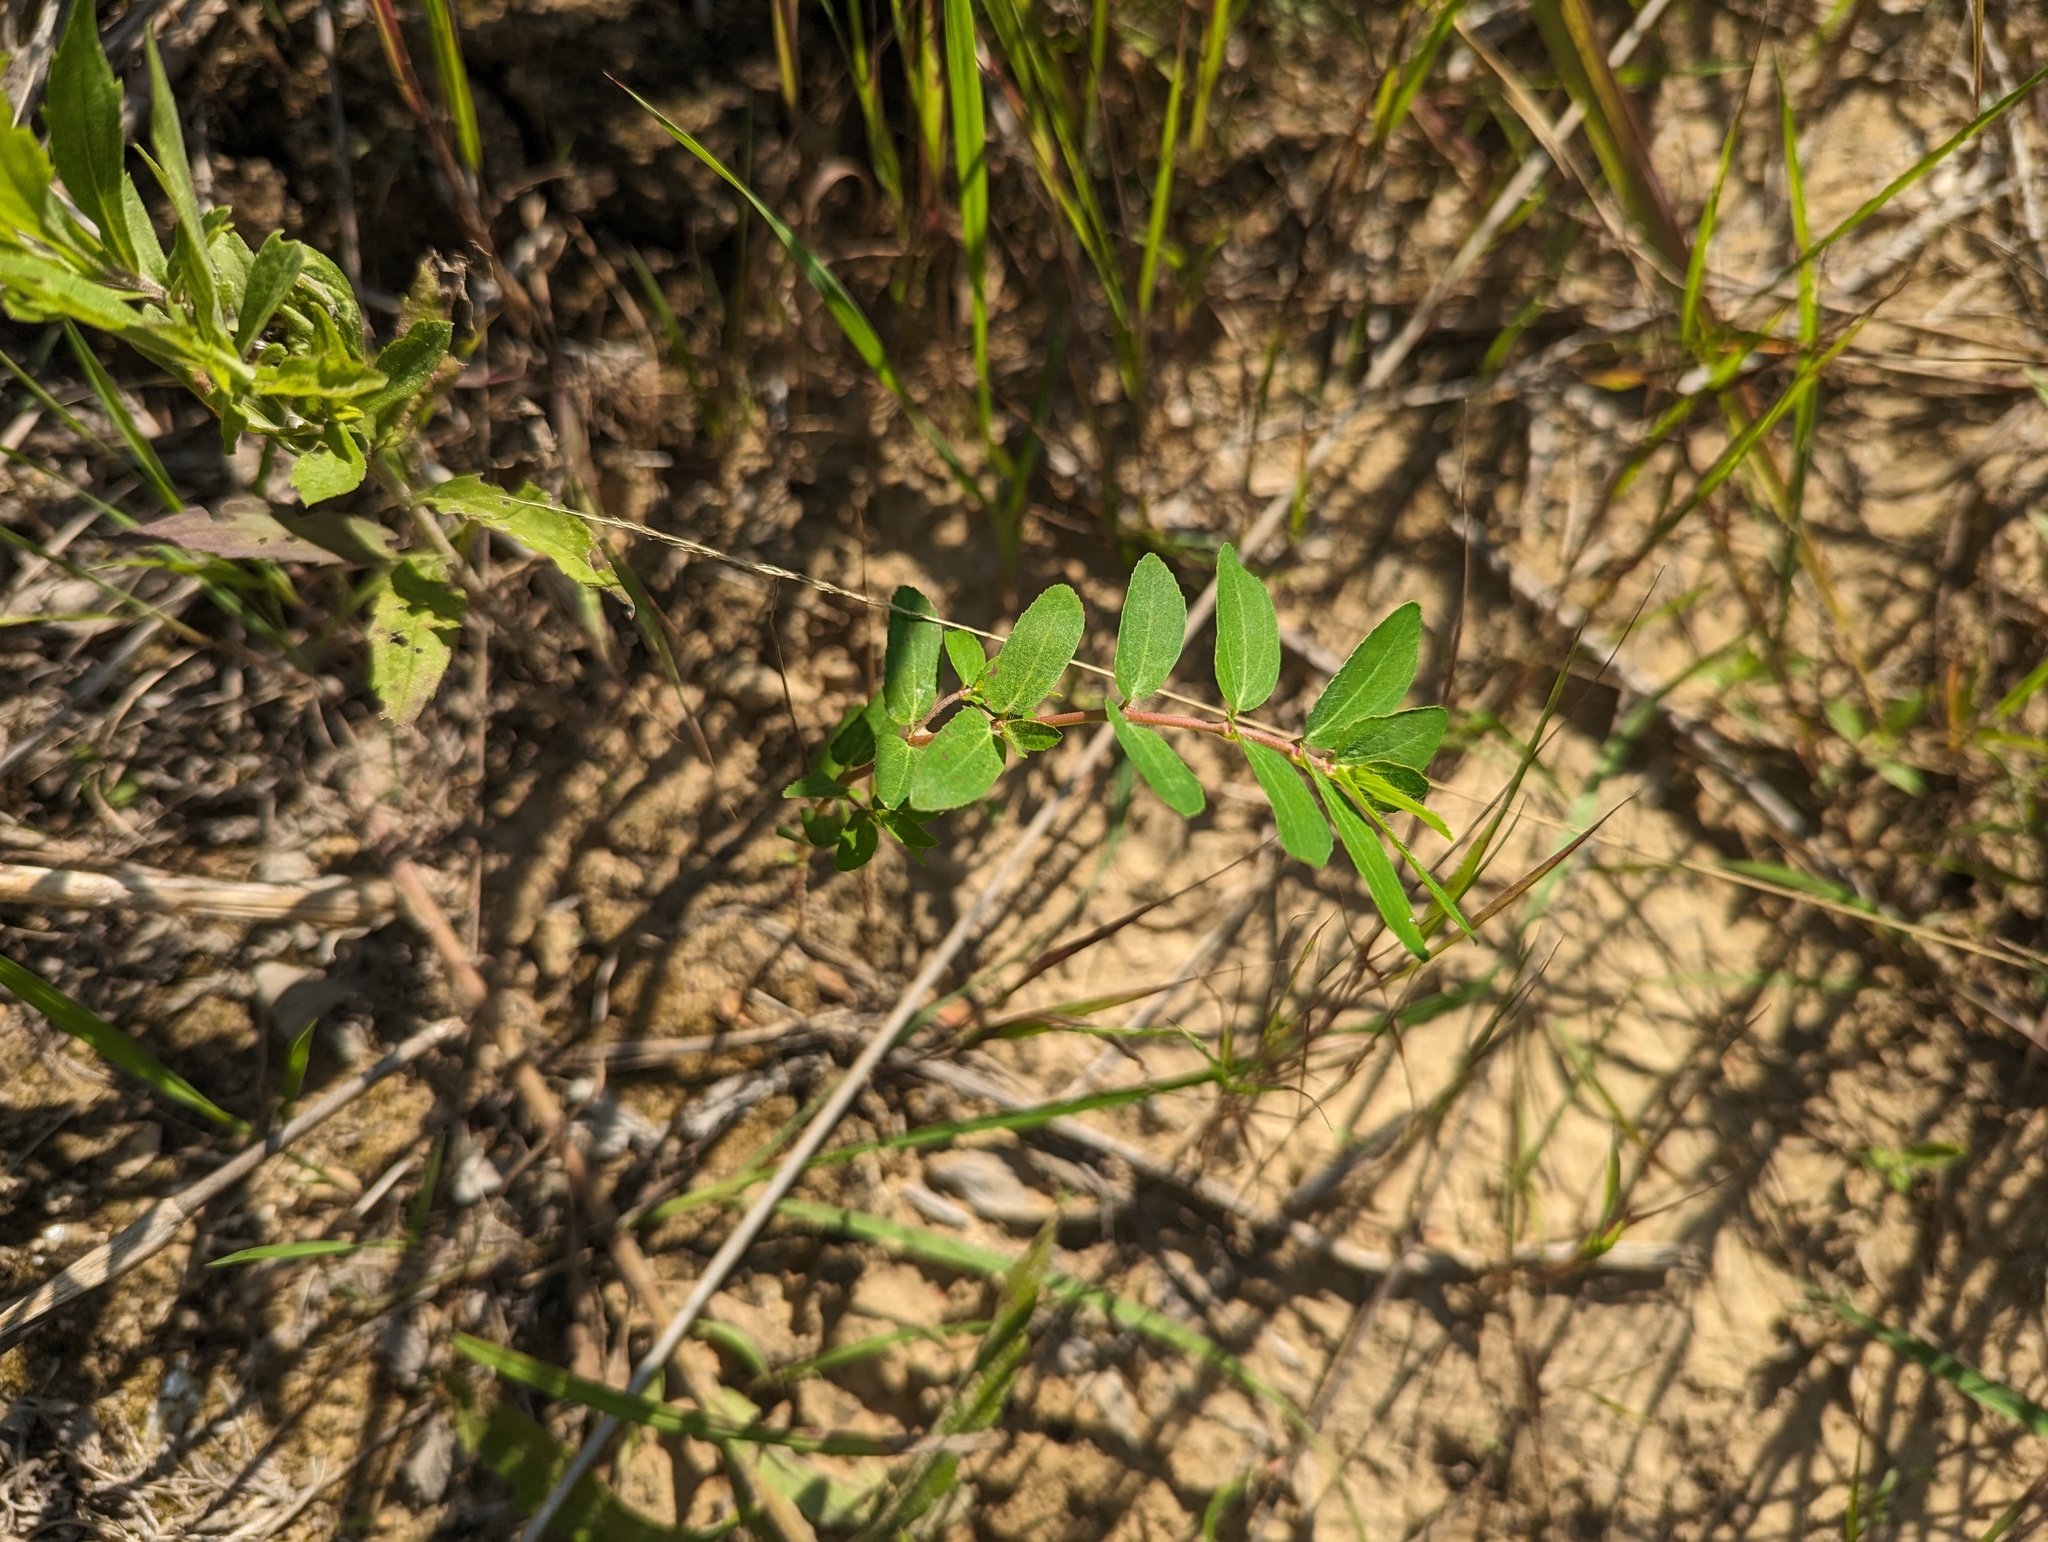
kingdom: Plantae
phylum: Tracheophyta
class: Magnoliopsida
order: Malpighiales
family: Euphorbiaceae
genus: Euphorbia
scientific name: Euphorbia nutans
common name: Eyebane
